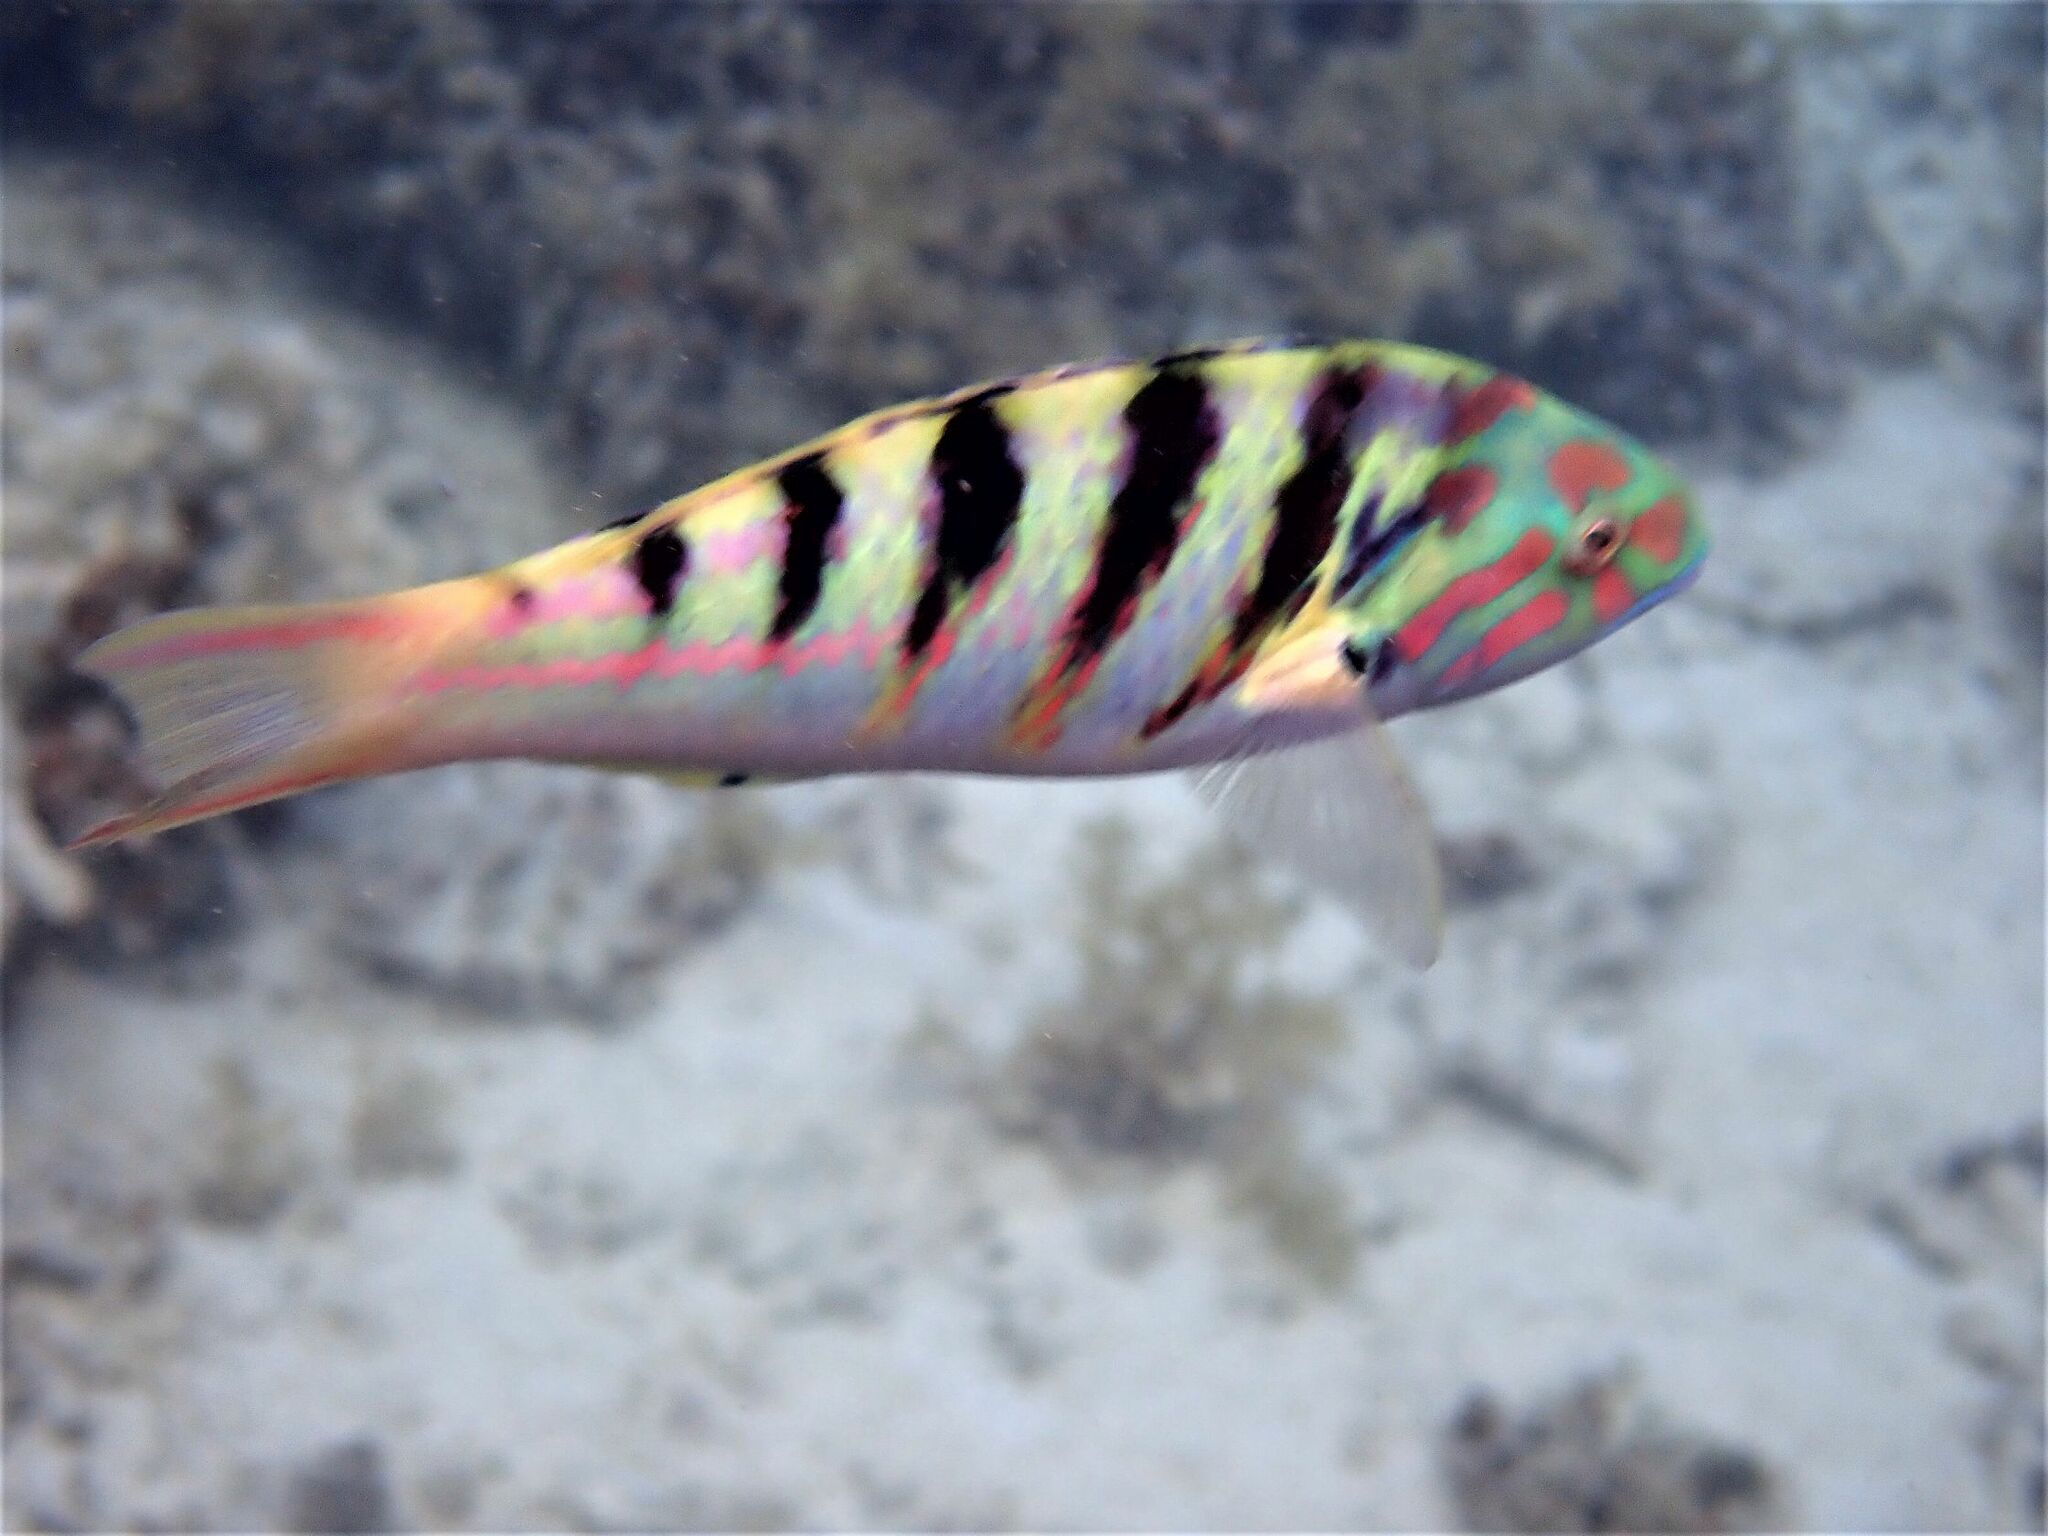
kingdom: Animalia
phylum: Chordata
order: Perciformes
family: Labridae
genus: Thalassoma
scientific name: Thalassoma hardwicke
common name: Sixbar wrasse
